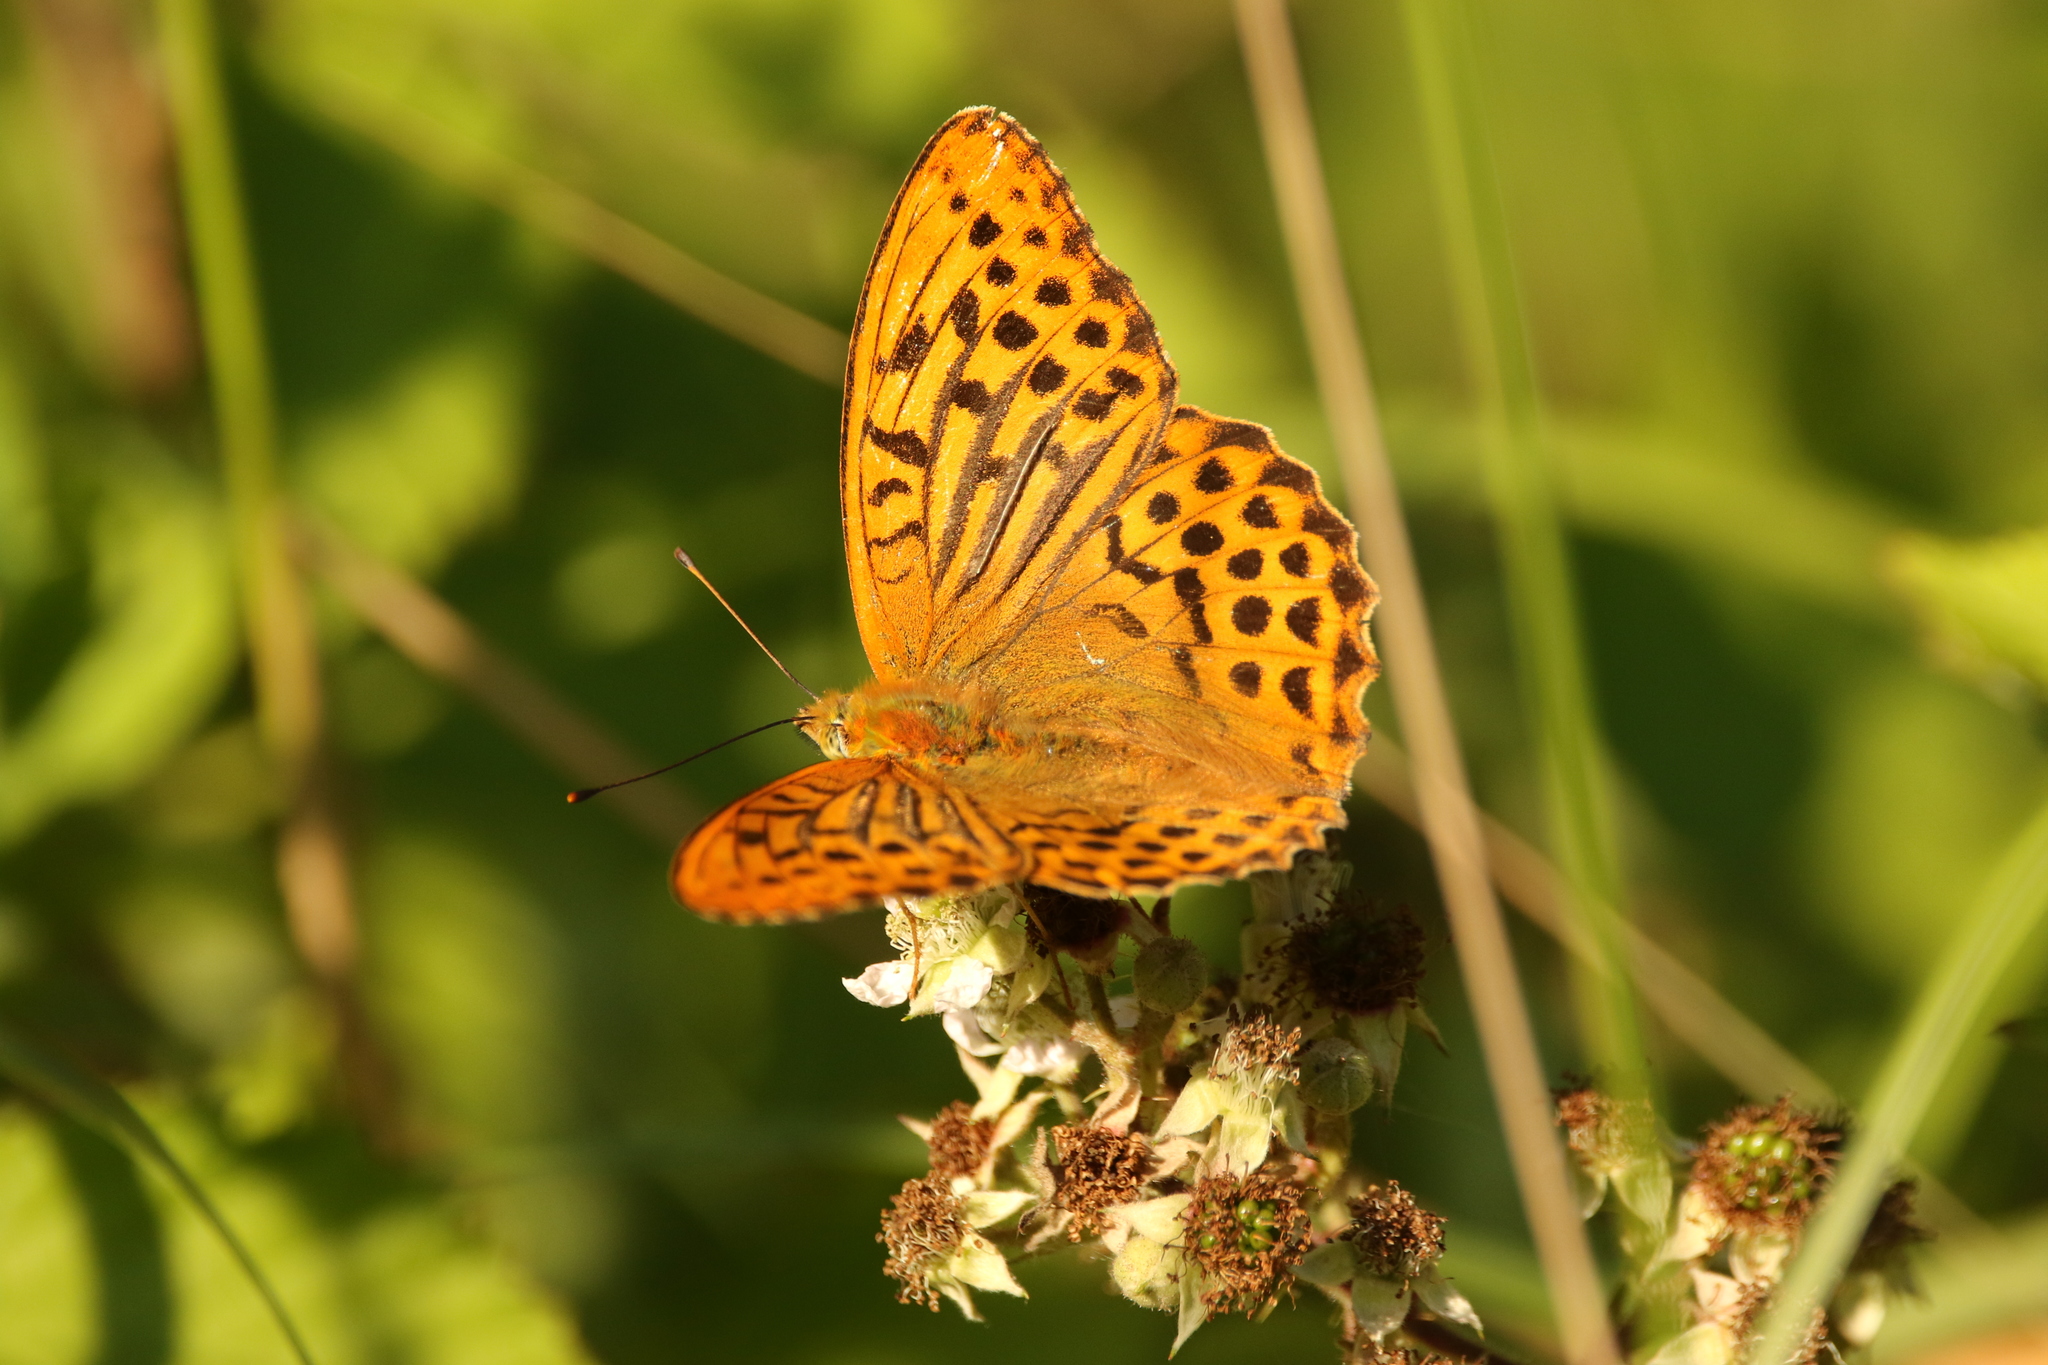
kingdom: Animalia
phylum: Arthropoda
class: Insecta
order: Lepidoptera
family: Nymphalidae
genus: Argynnis
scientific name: Argynnis paphia
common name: Silver-washed fritillary
